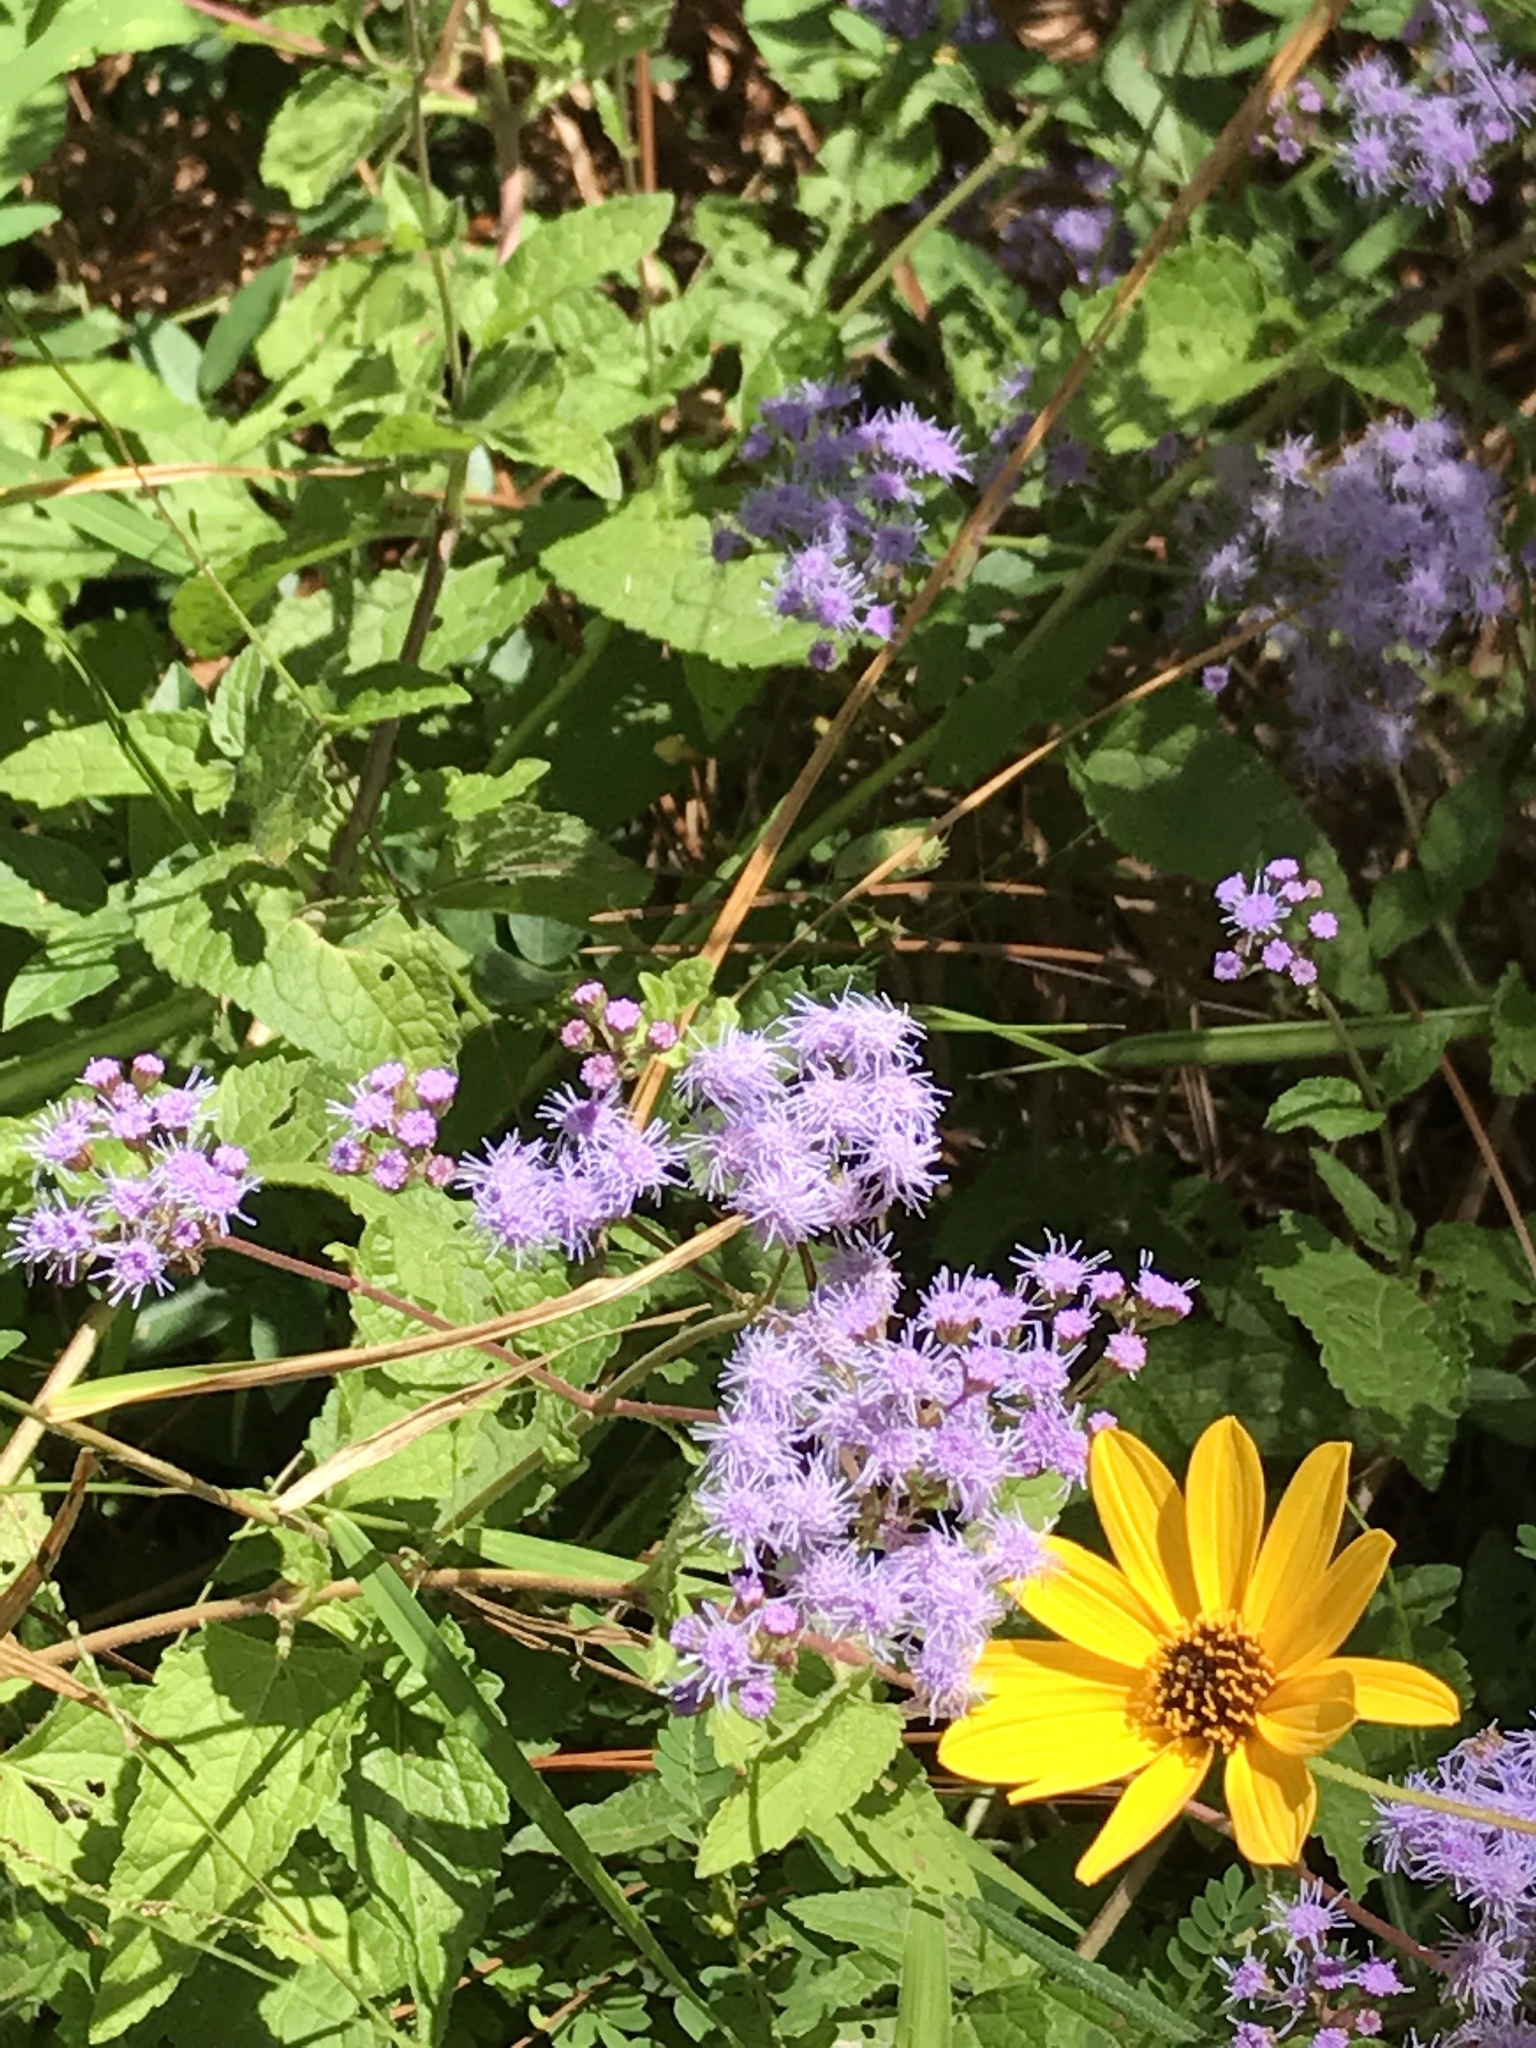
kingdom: Plantae
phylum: Tracheophyta
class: Magnoliopsida
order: Asterales
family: Asteraceae
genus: Conoclinium
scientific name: Conoclinium coelestinum
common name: Blue mistflower
